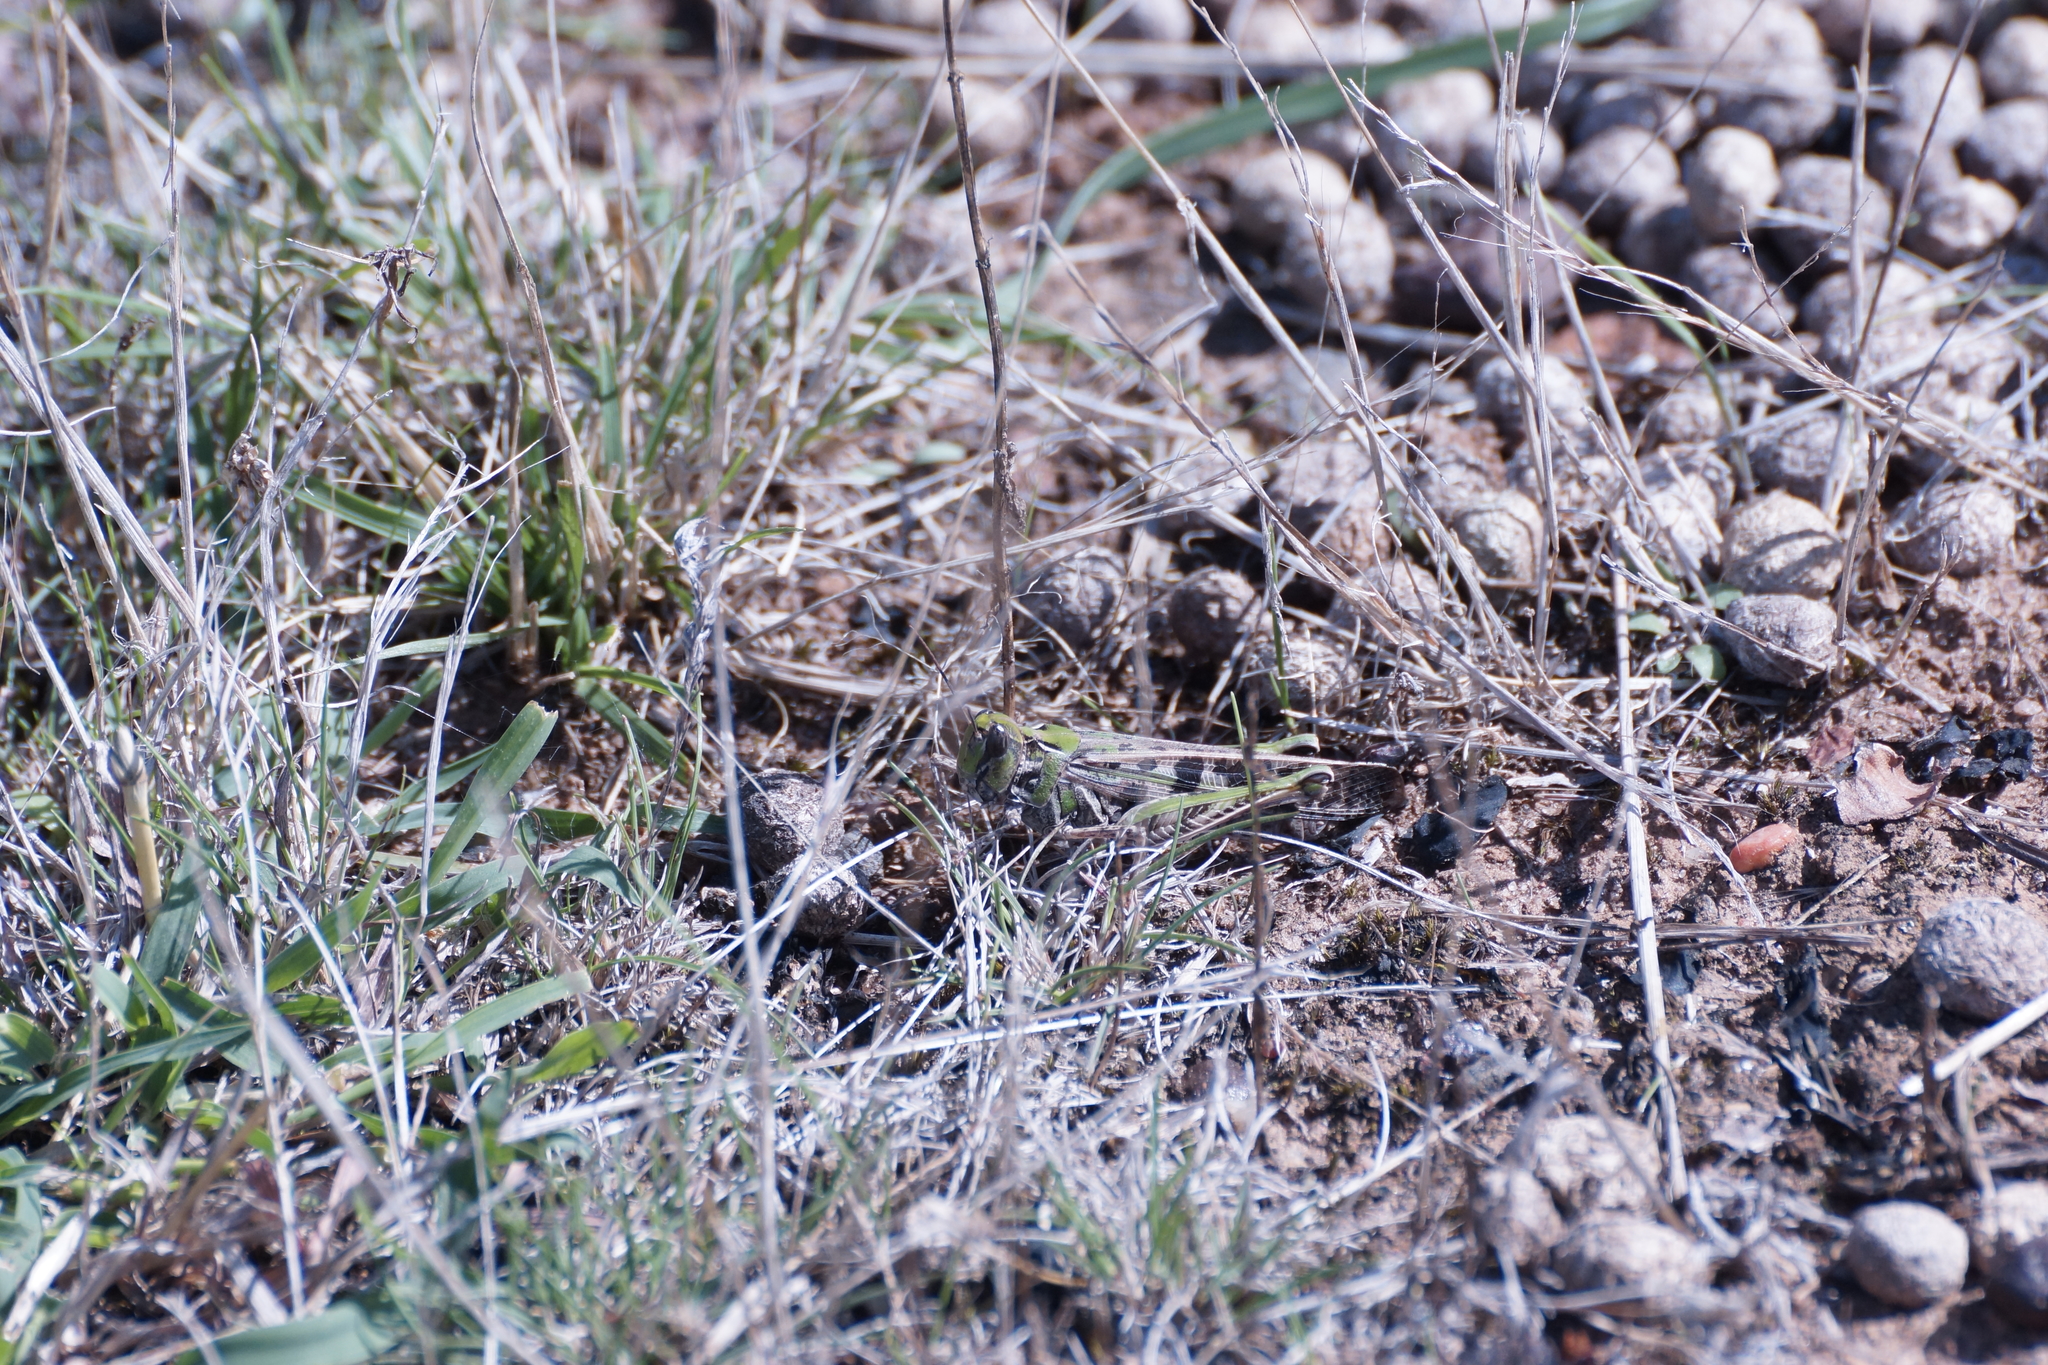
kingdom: Animalia
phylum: Arthropoda
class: Insecta
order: Orthoptera
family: Acrididae
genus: Chortoicetes
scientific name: Chortoicetes terminifera
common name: Australian plague locust
